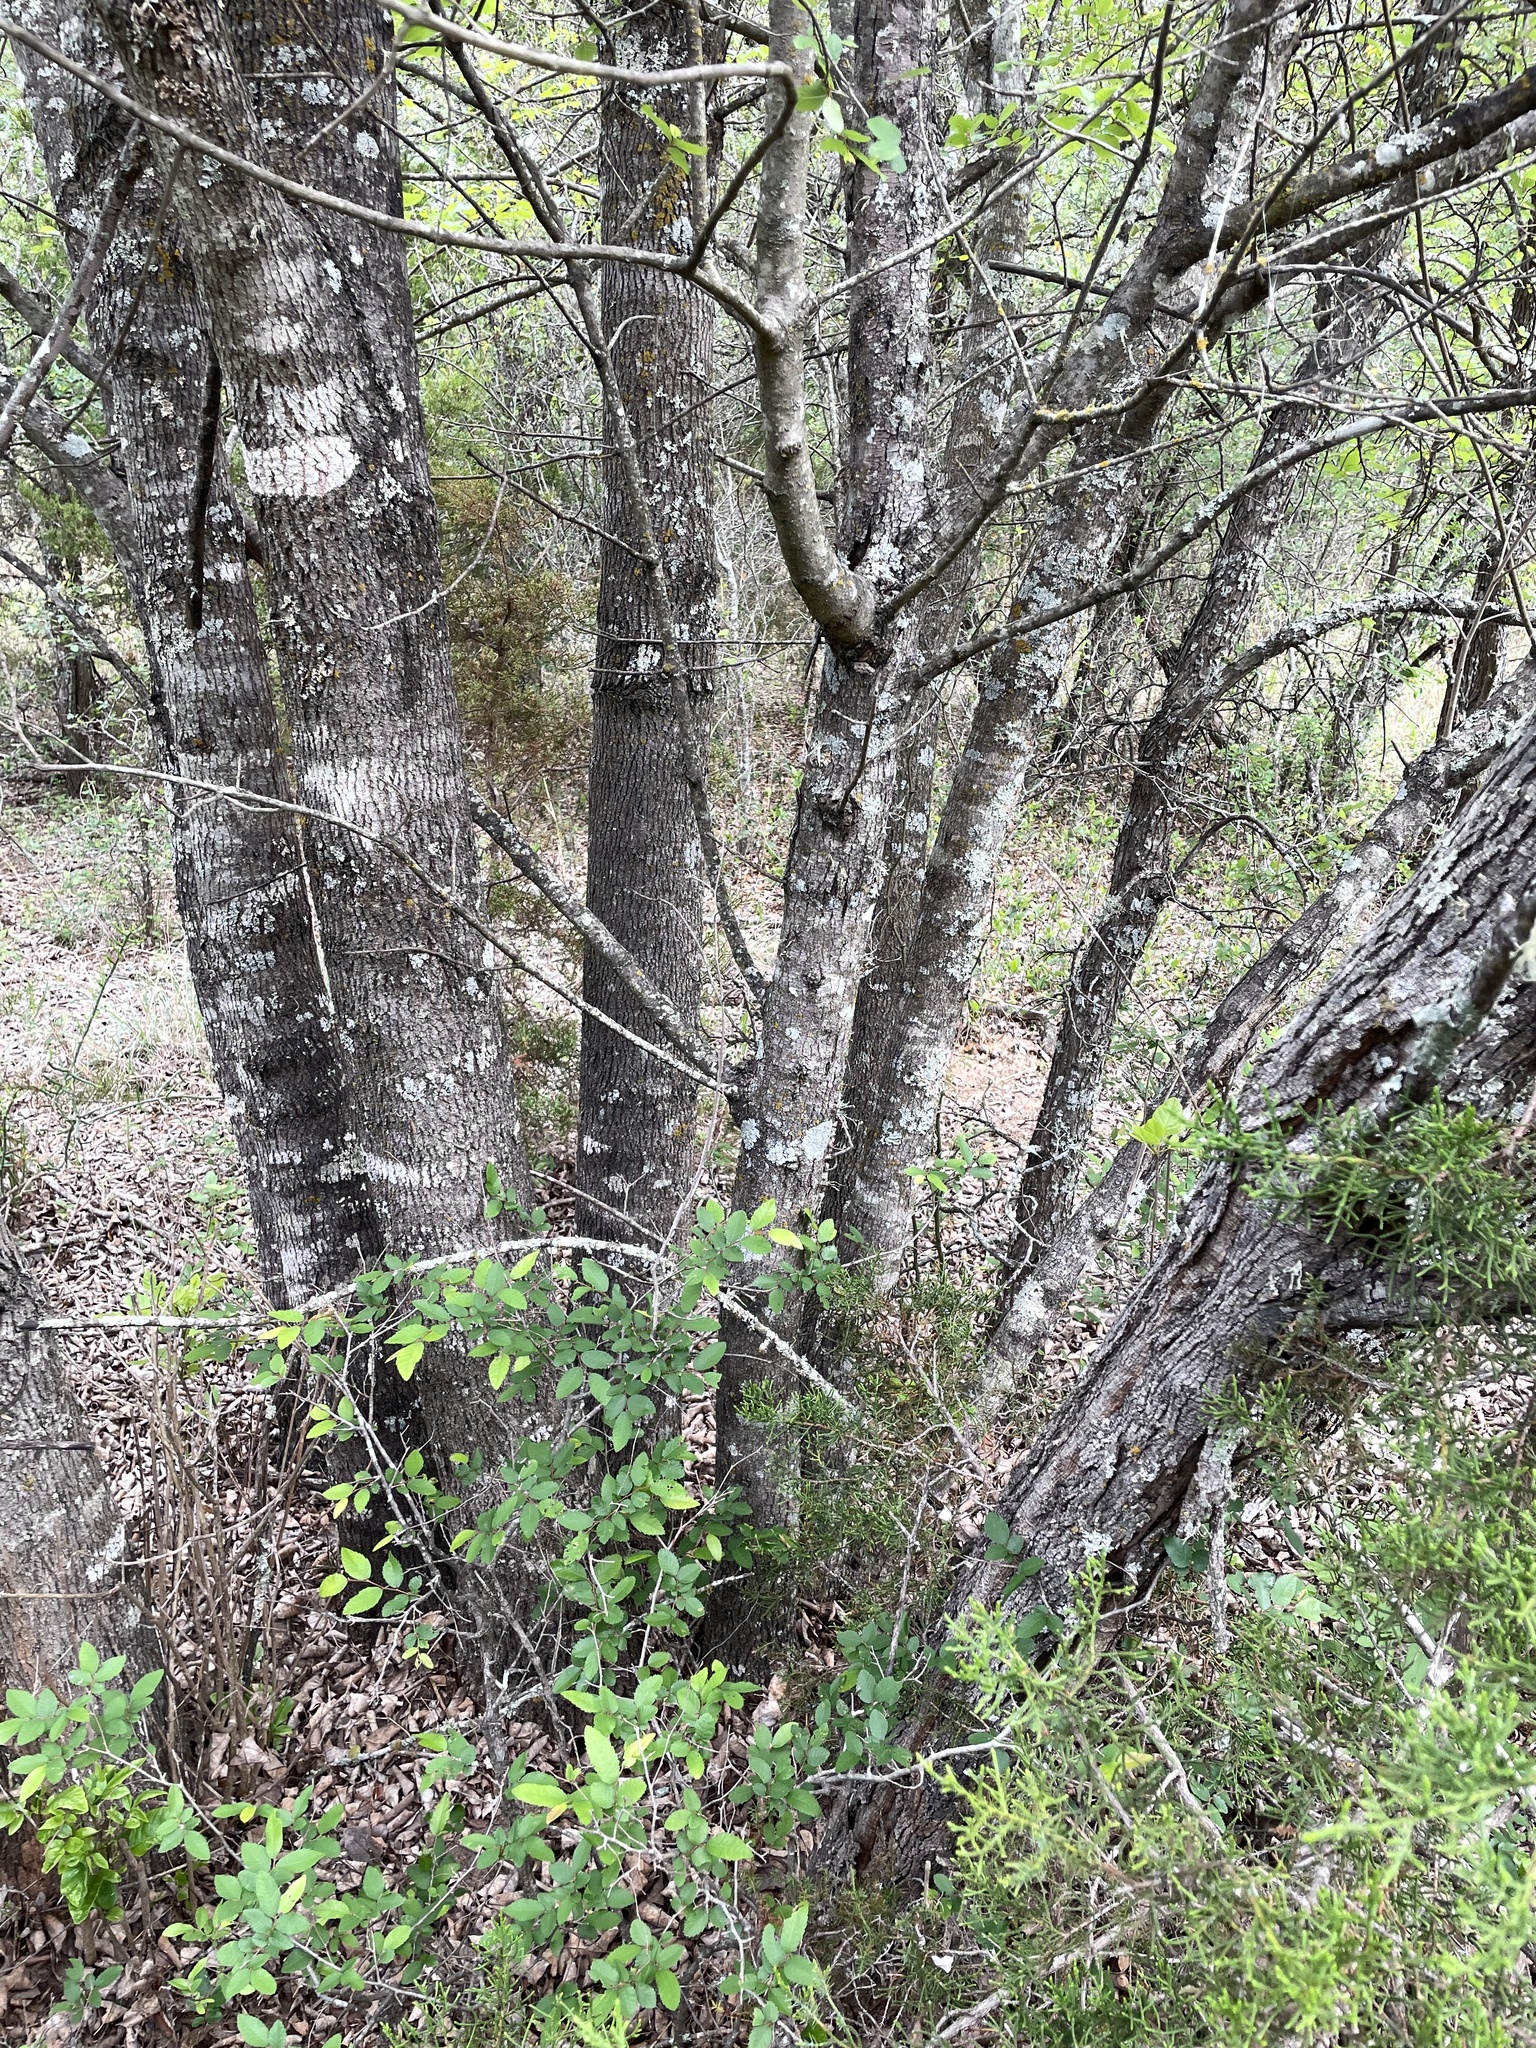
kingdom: Plantae
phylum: Tracheophyta
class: Magnoliopsida
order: Lamiales
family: Oleaceae
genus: Fraxinus
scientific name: Fraxinus albicans
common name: Texas ash
